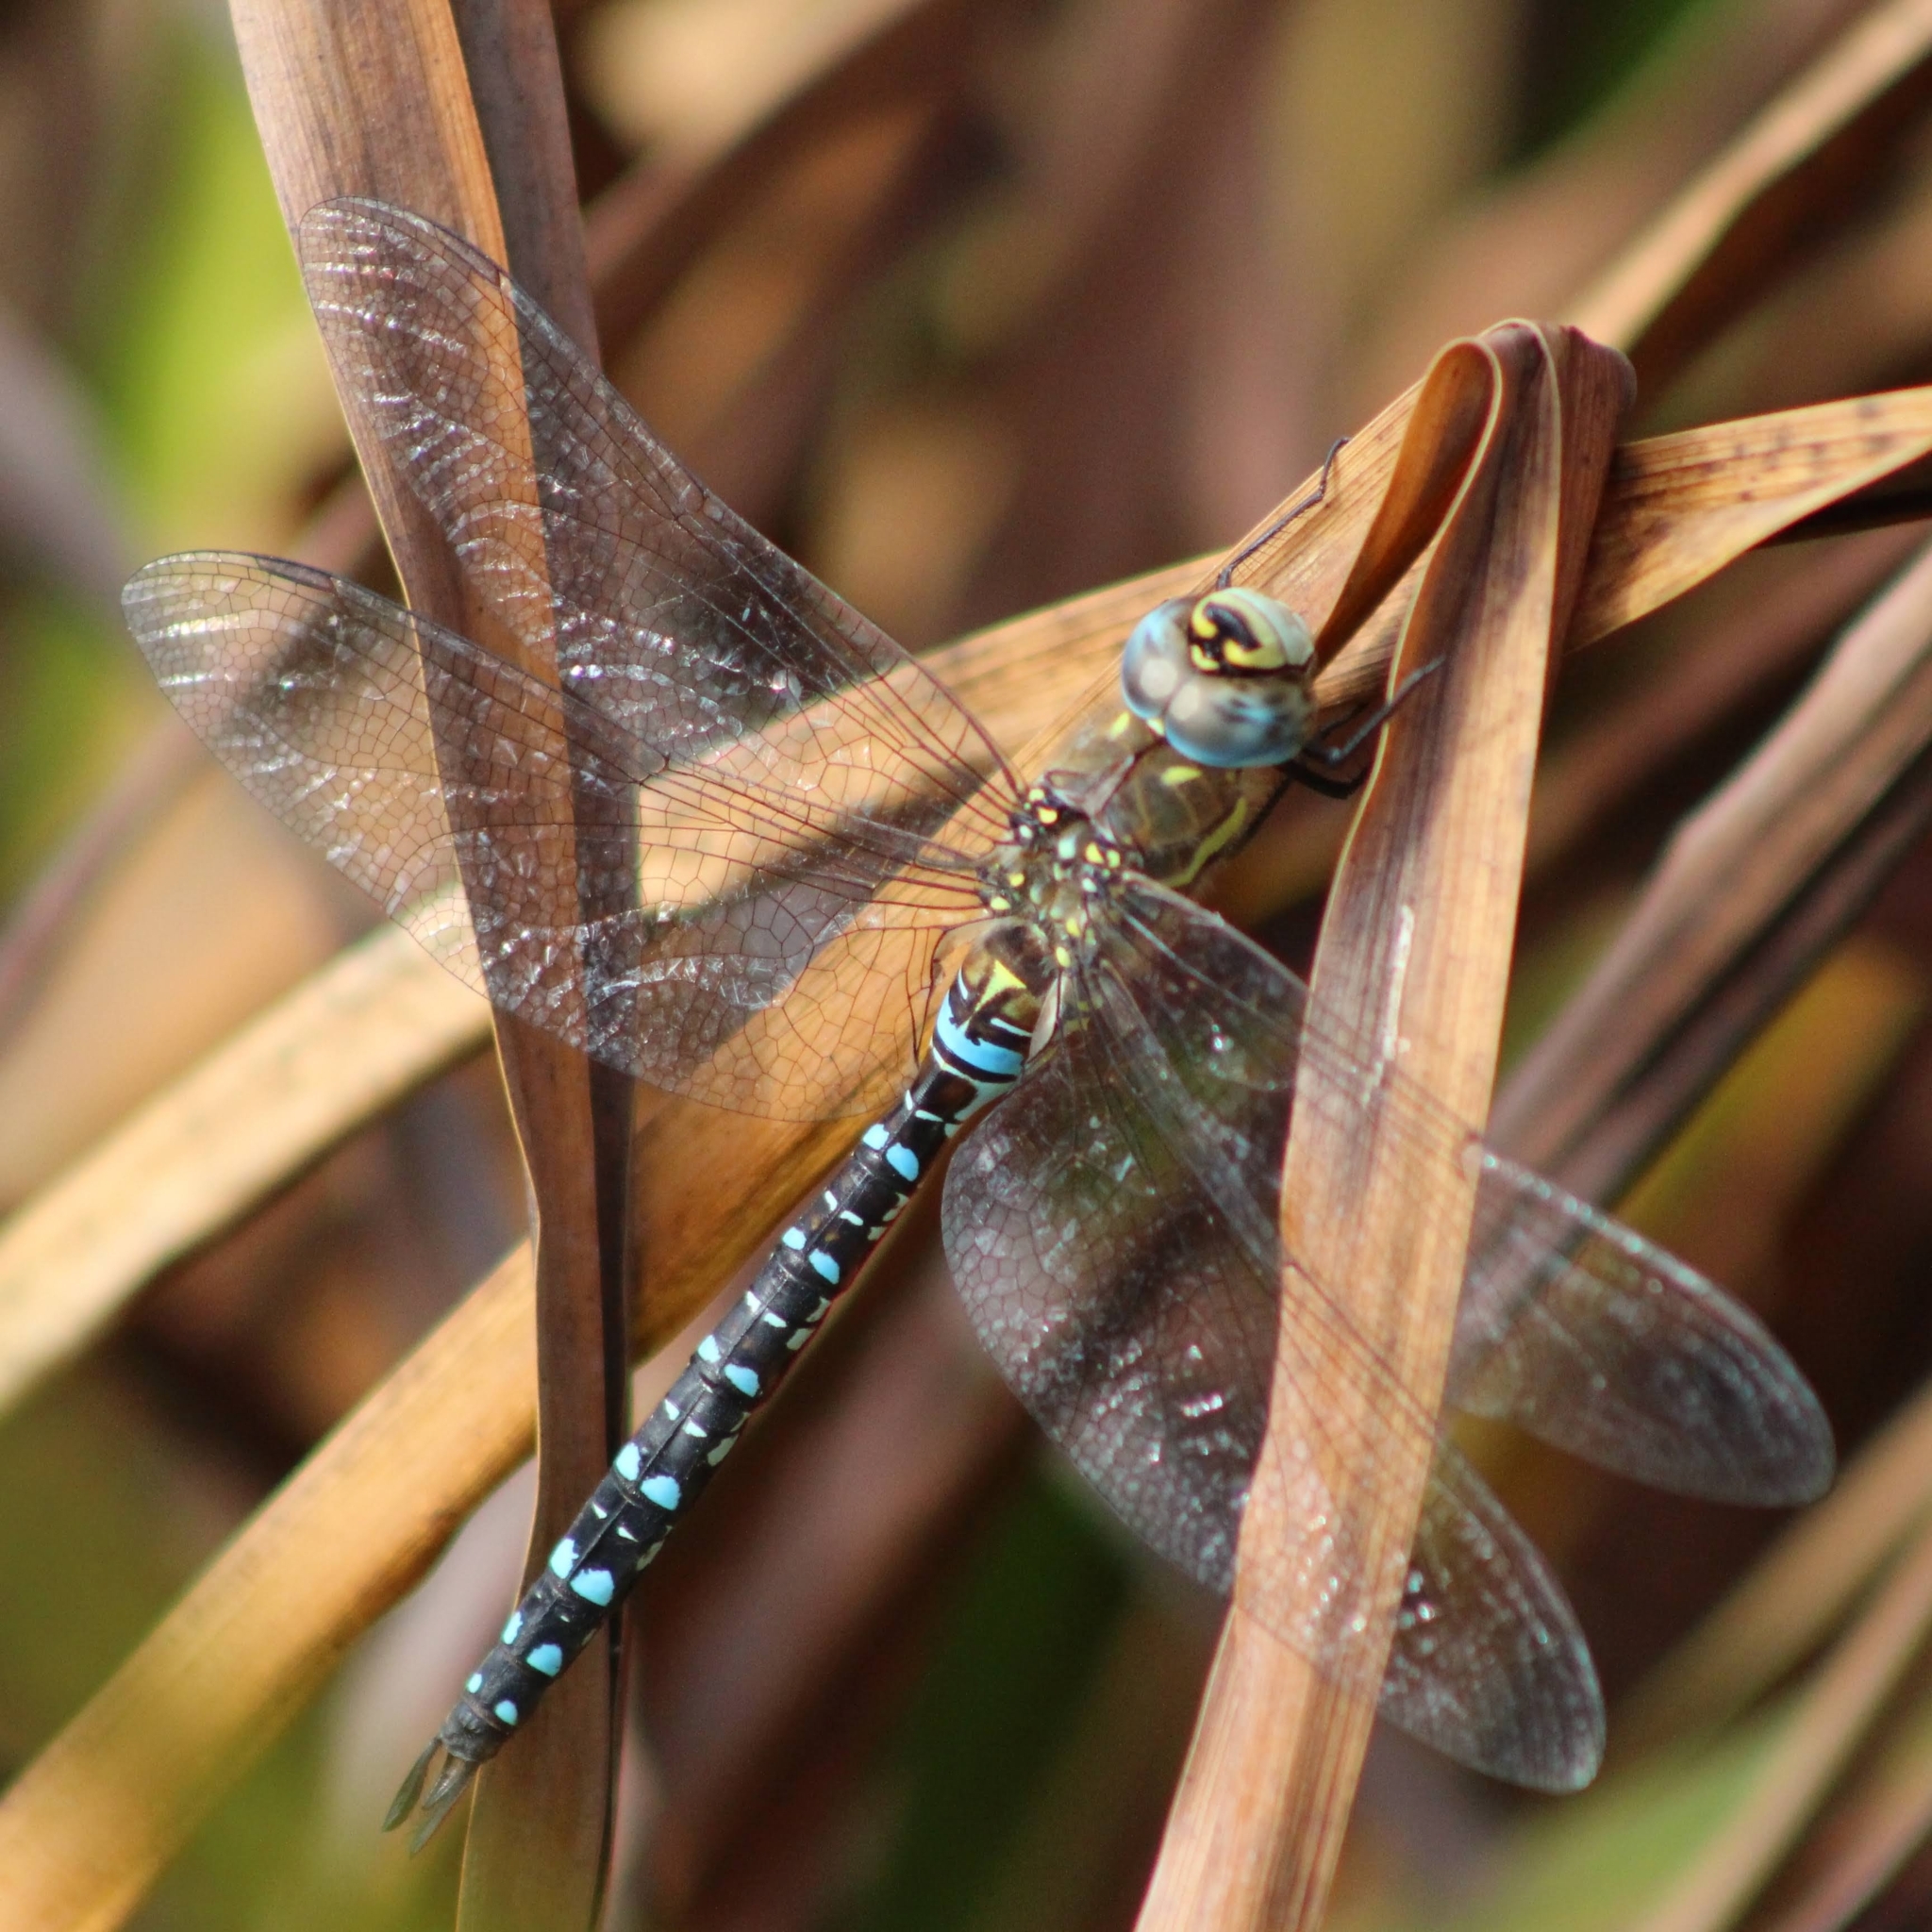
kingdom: Animalia
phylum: Arthropoda
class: Insecta
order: Odonata
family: Aeshnidae
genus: Aeshna
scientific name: Aeshna mixta
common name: Migrant hawker
